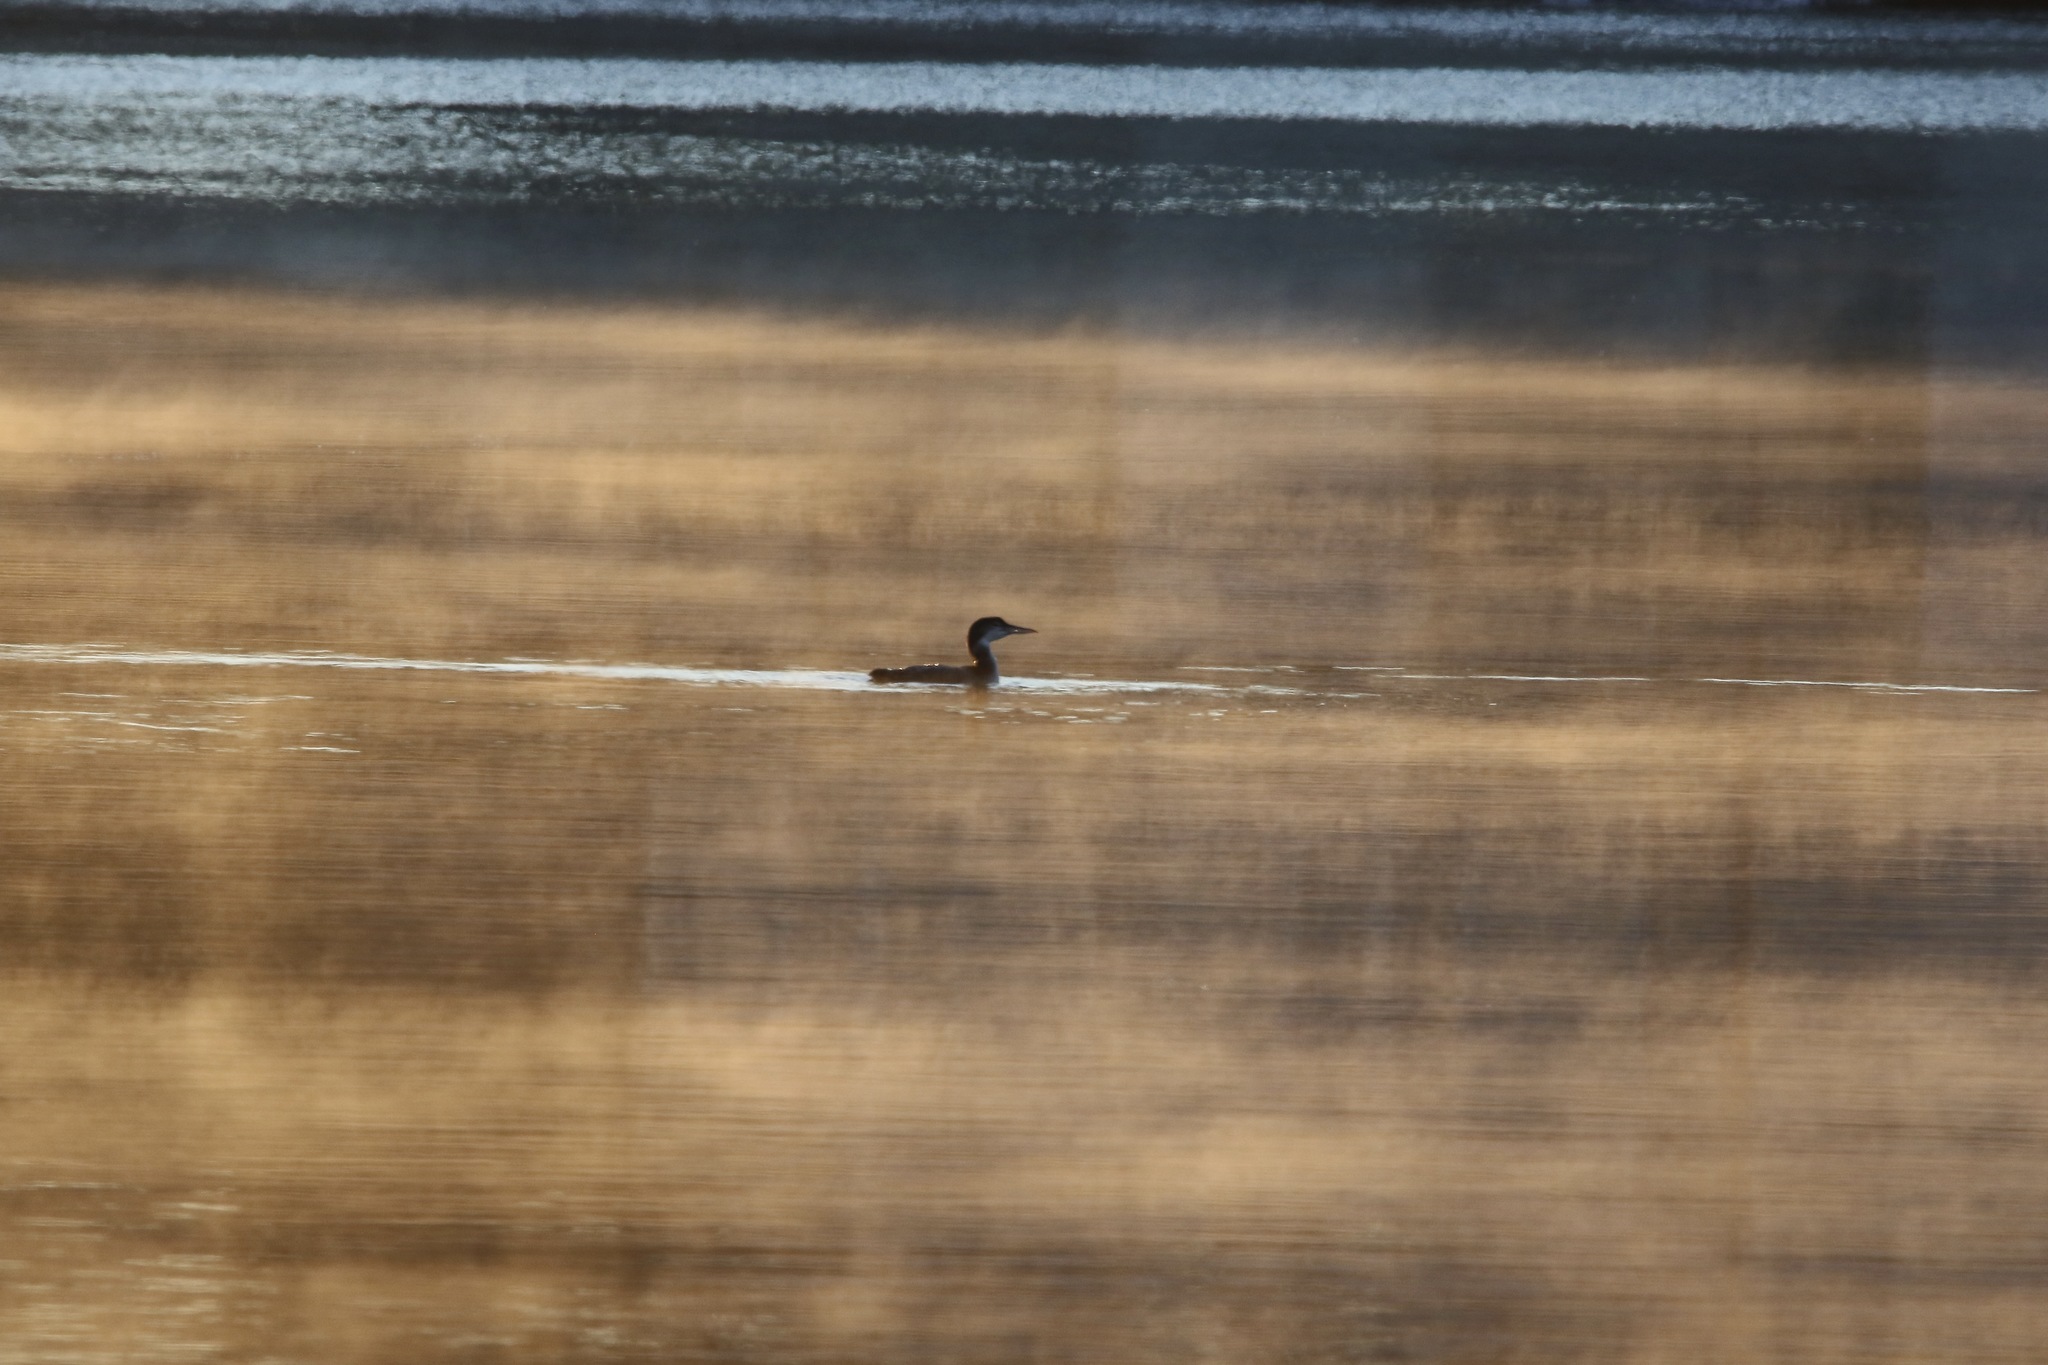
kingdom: Animalia
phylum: Chordata
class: Aves
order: Gaviiformes
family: Gaviidae
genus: Gavia
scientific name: Gavia immer
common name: Common loon
